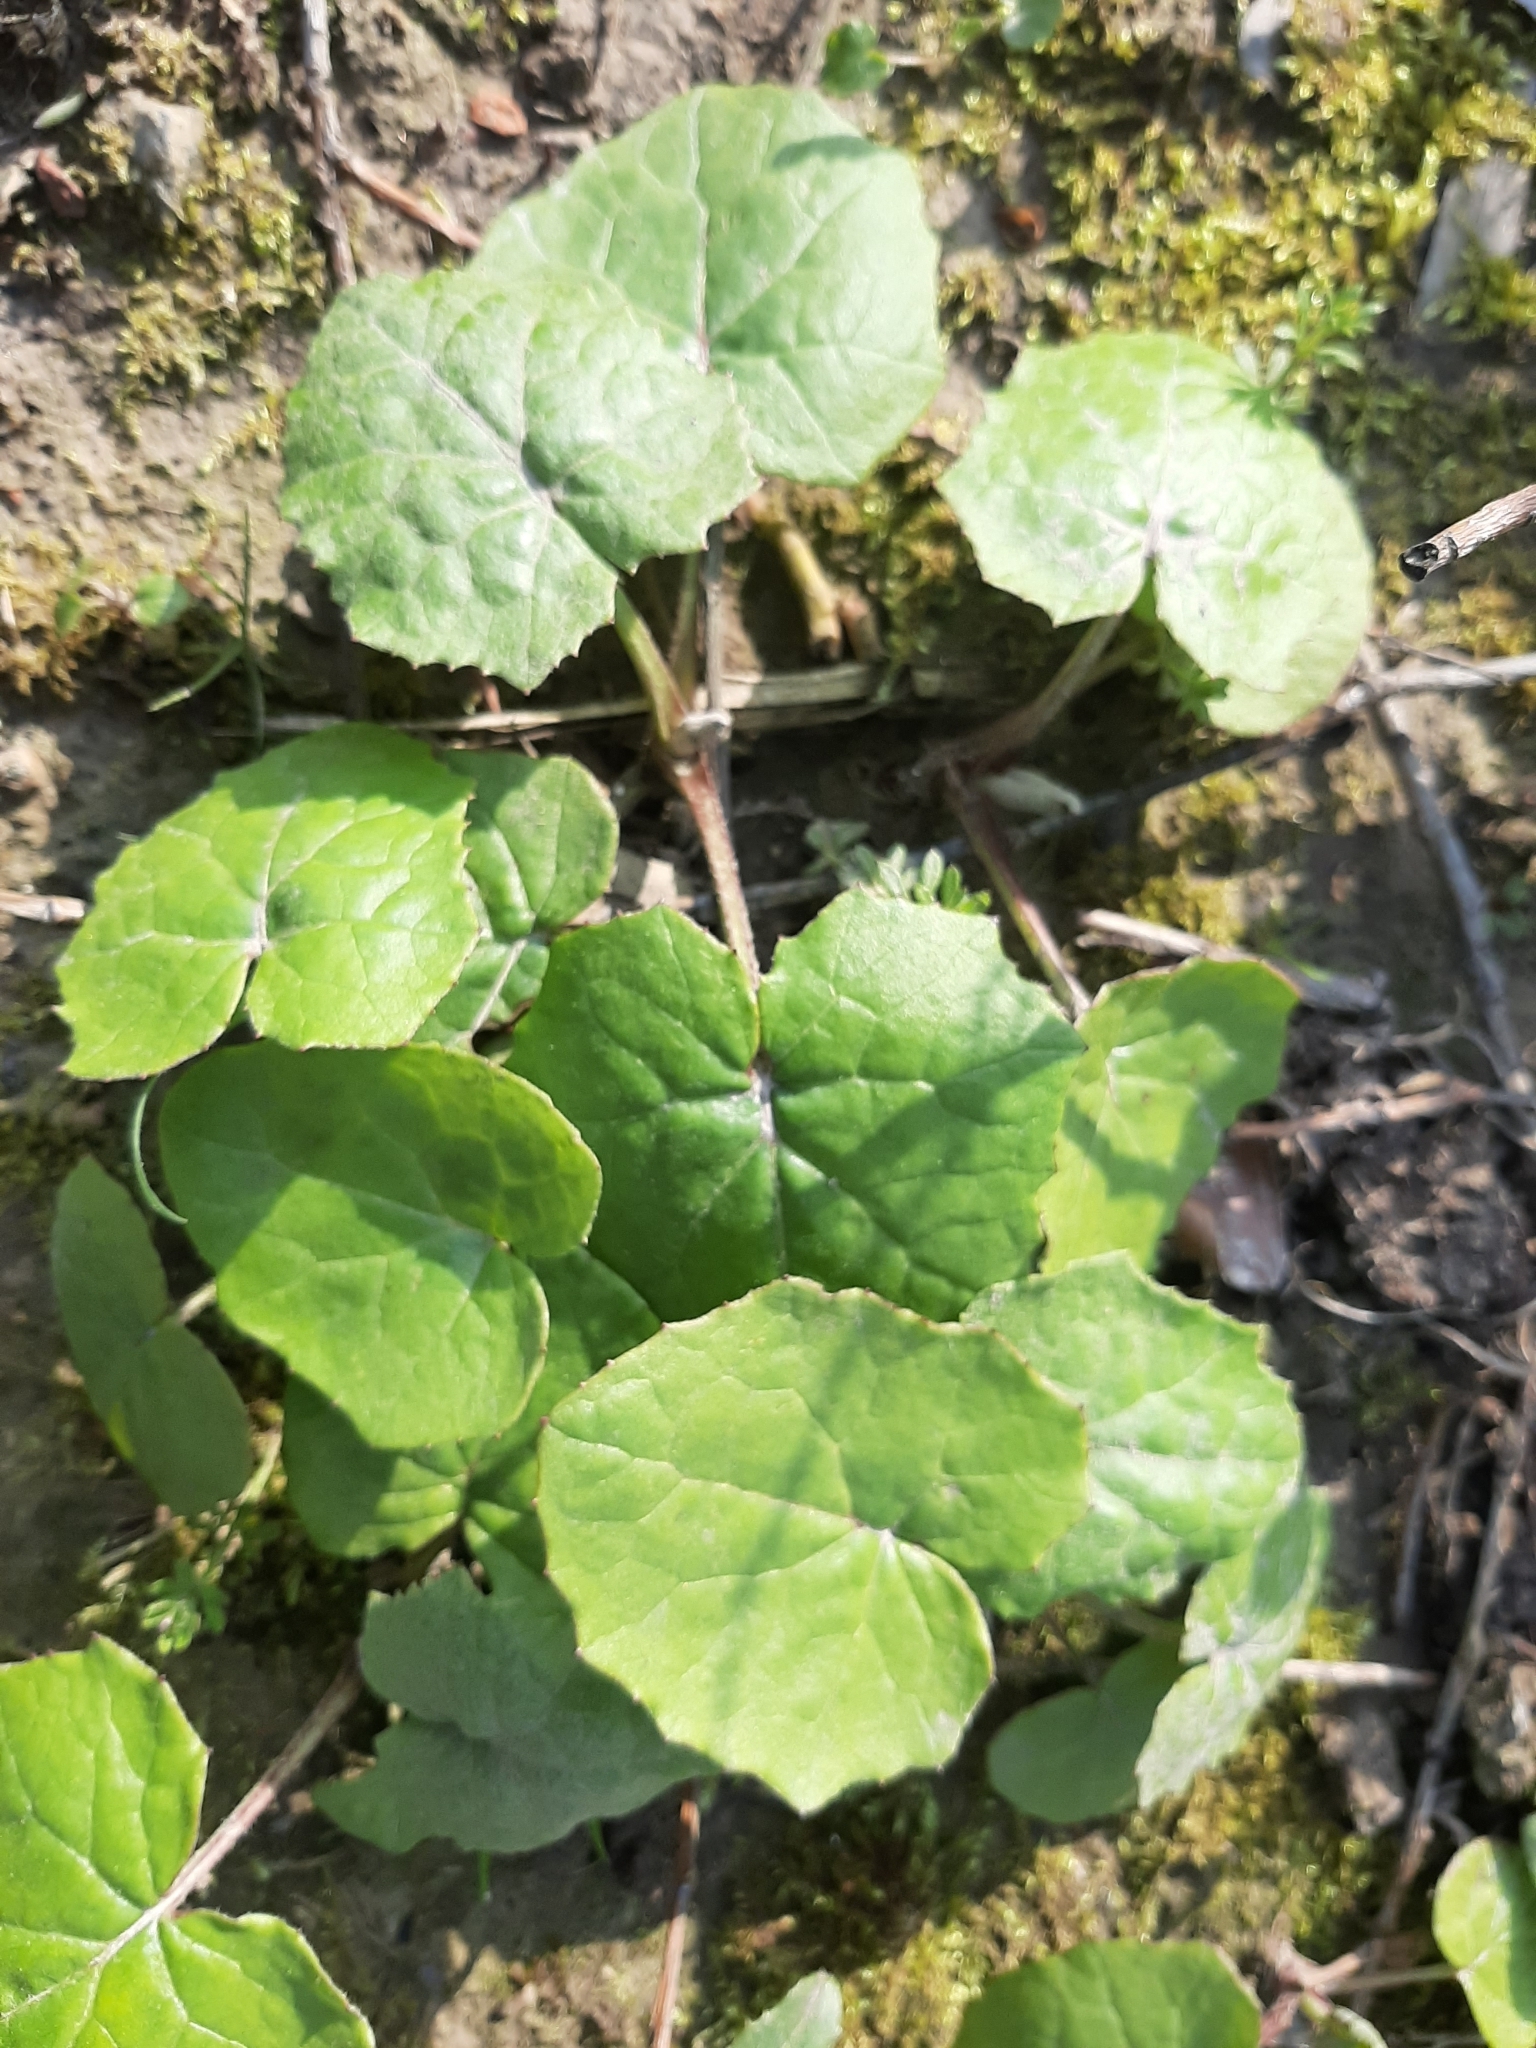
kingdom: Plantae
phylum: Tracheophyta
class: Magnoliopsida
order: Asterales
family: Asteraceae
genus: Tussilago
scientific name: Tussilago farfara
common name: Coltsfoot
